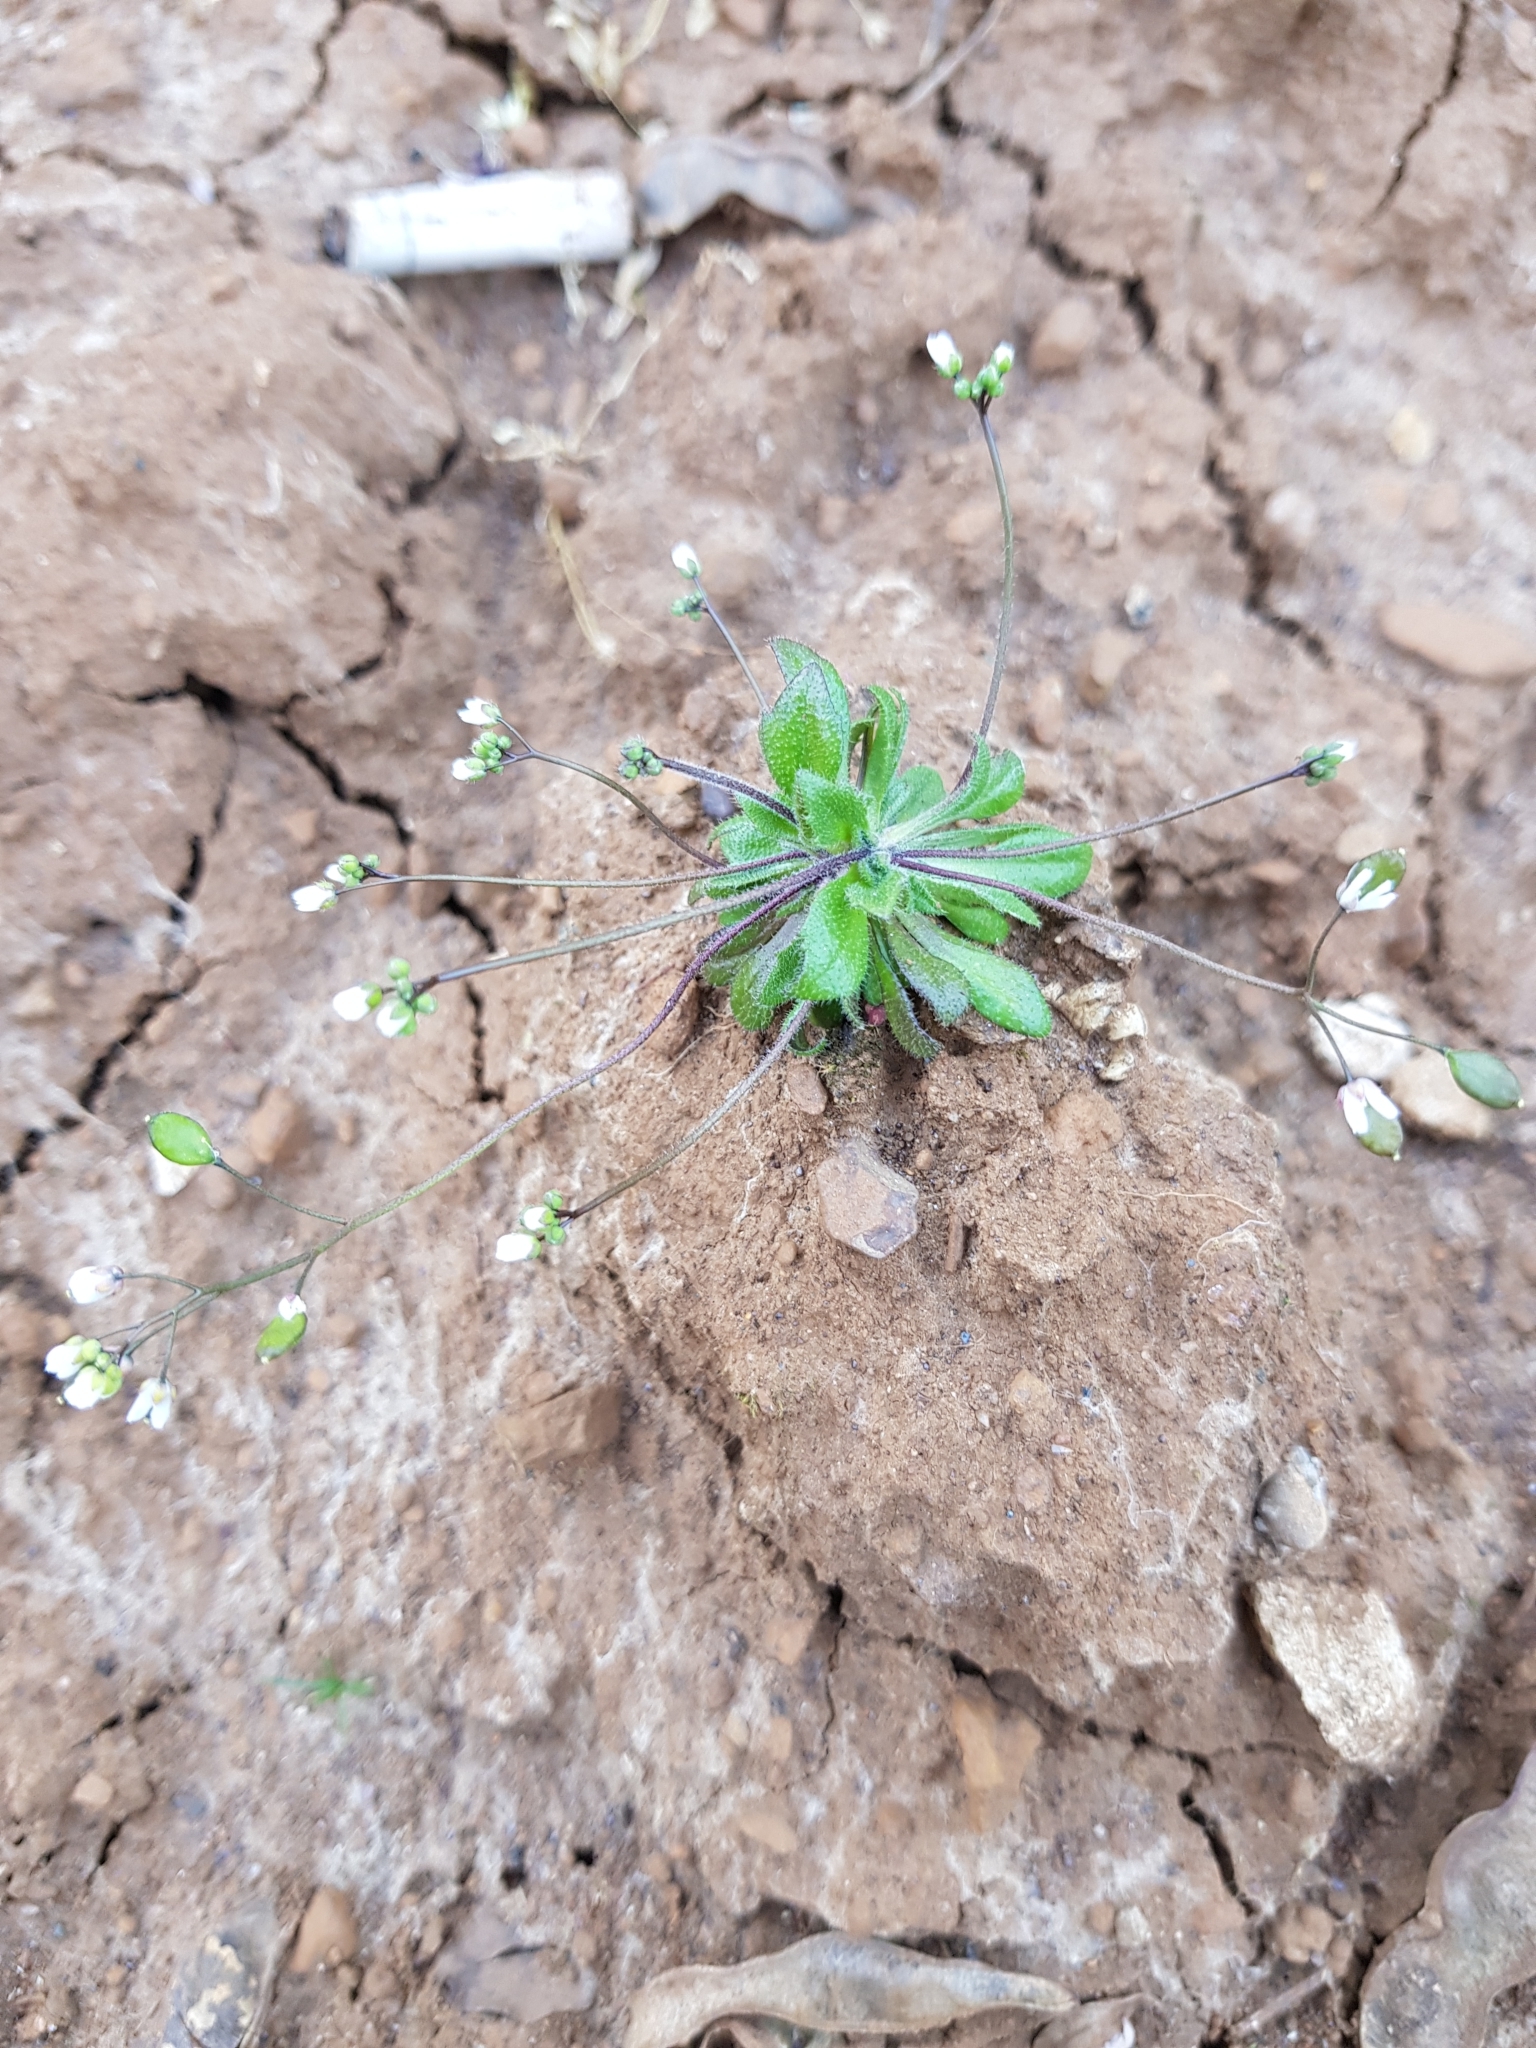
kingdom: Plantae
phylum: Tracheophyta
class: Magnoliopsida
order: Brassicales
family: Brassicaceae
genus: Draba
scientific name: Draba verna
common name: Spring draba
